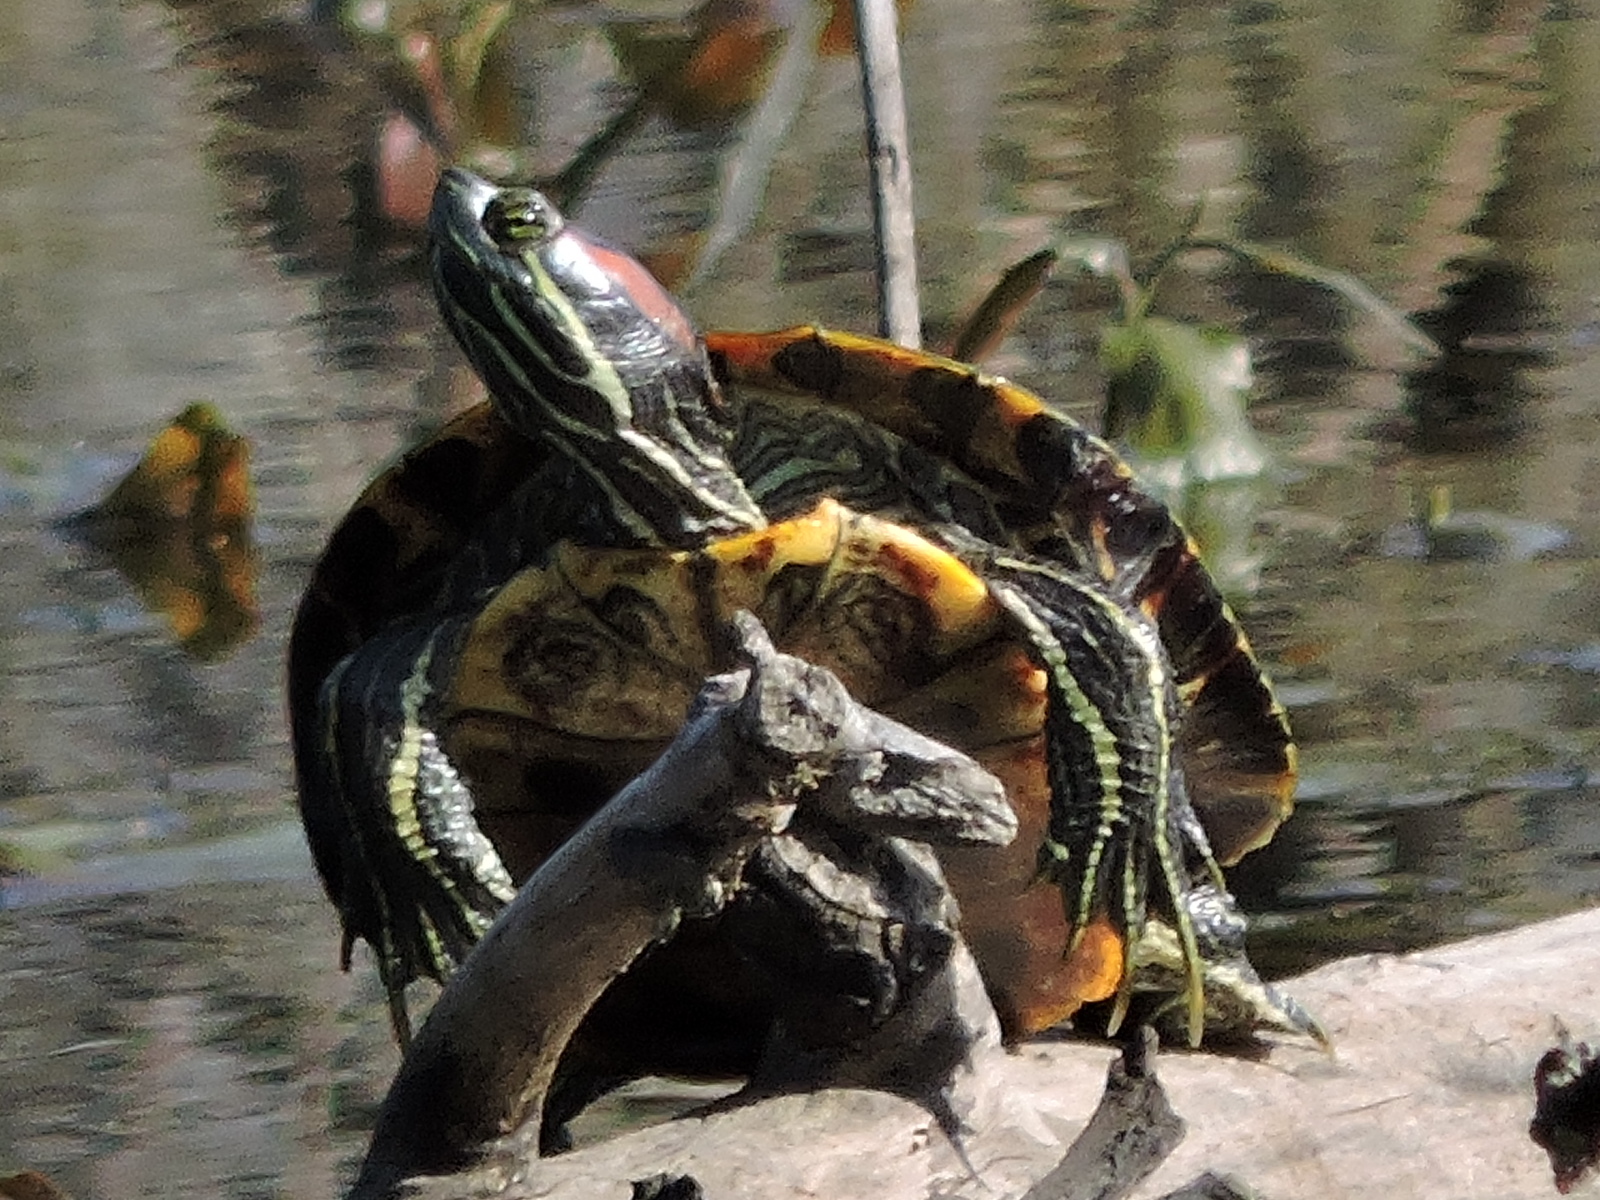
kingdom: Animalia
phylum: Chordata
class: Testudines
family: Emydidae
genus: Trachemys
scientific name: Trachemys scripta
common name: Slider
